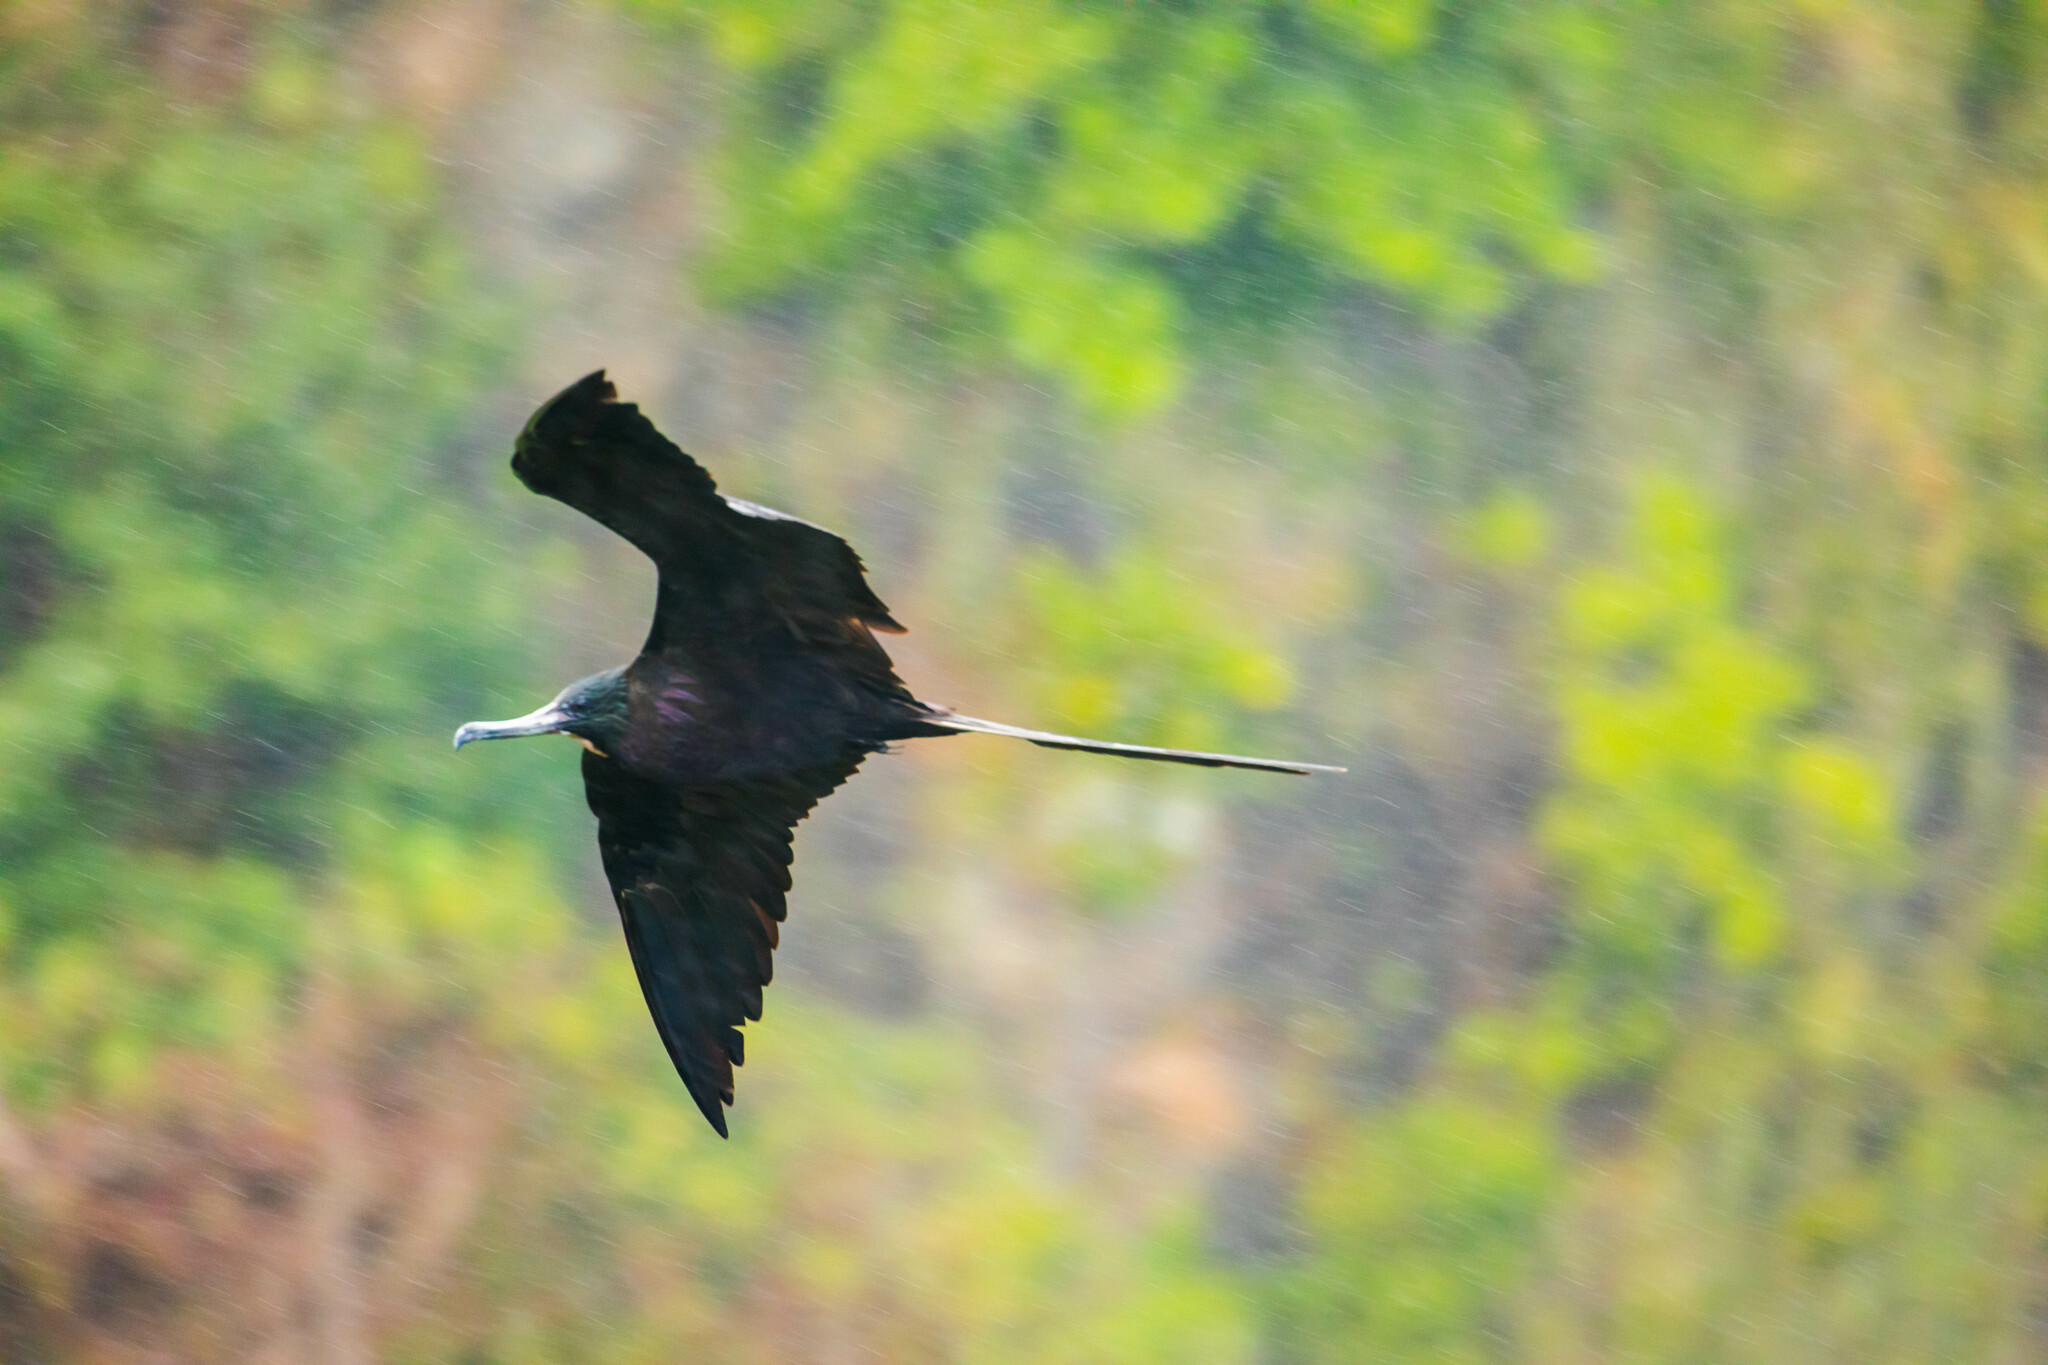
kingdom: Animalia
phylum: Chordata
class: Aves
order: Suliformes
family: Fregatidae
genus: Fregata
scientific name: Fregata magnificens
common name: Magnificent frigatebird
